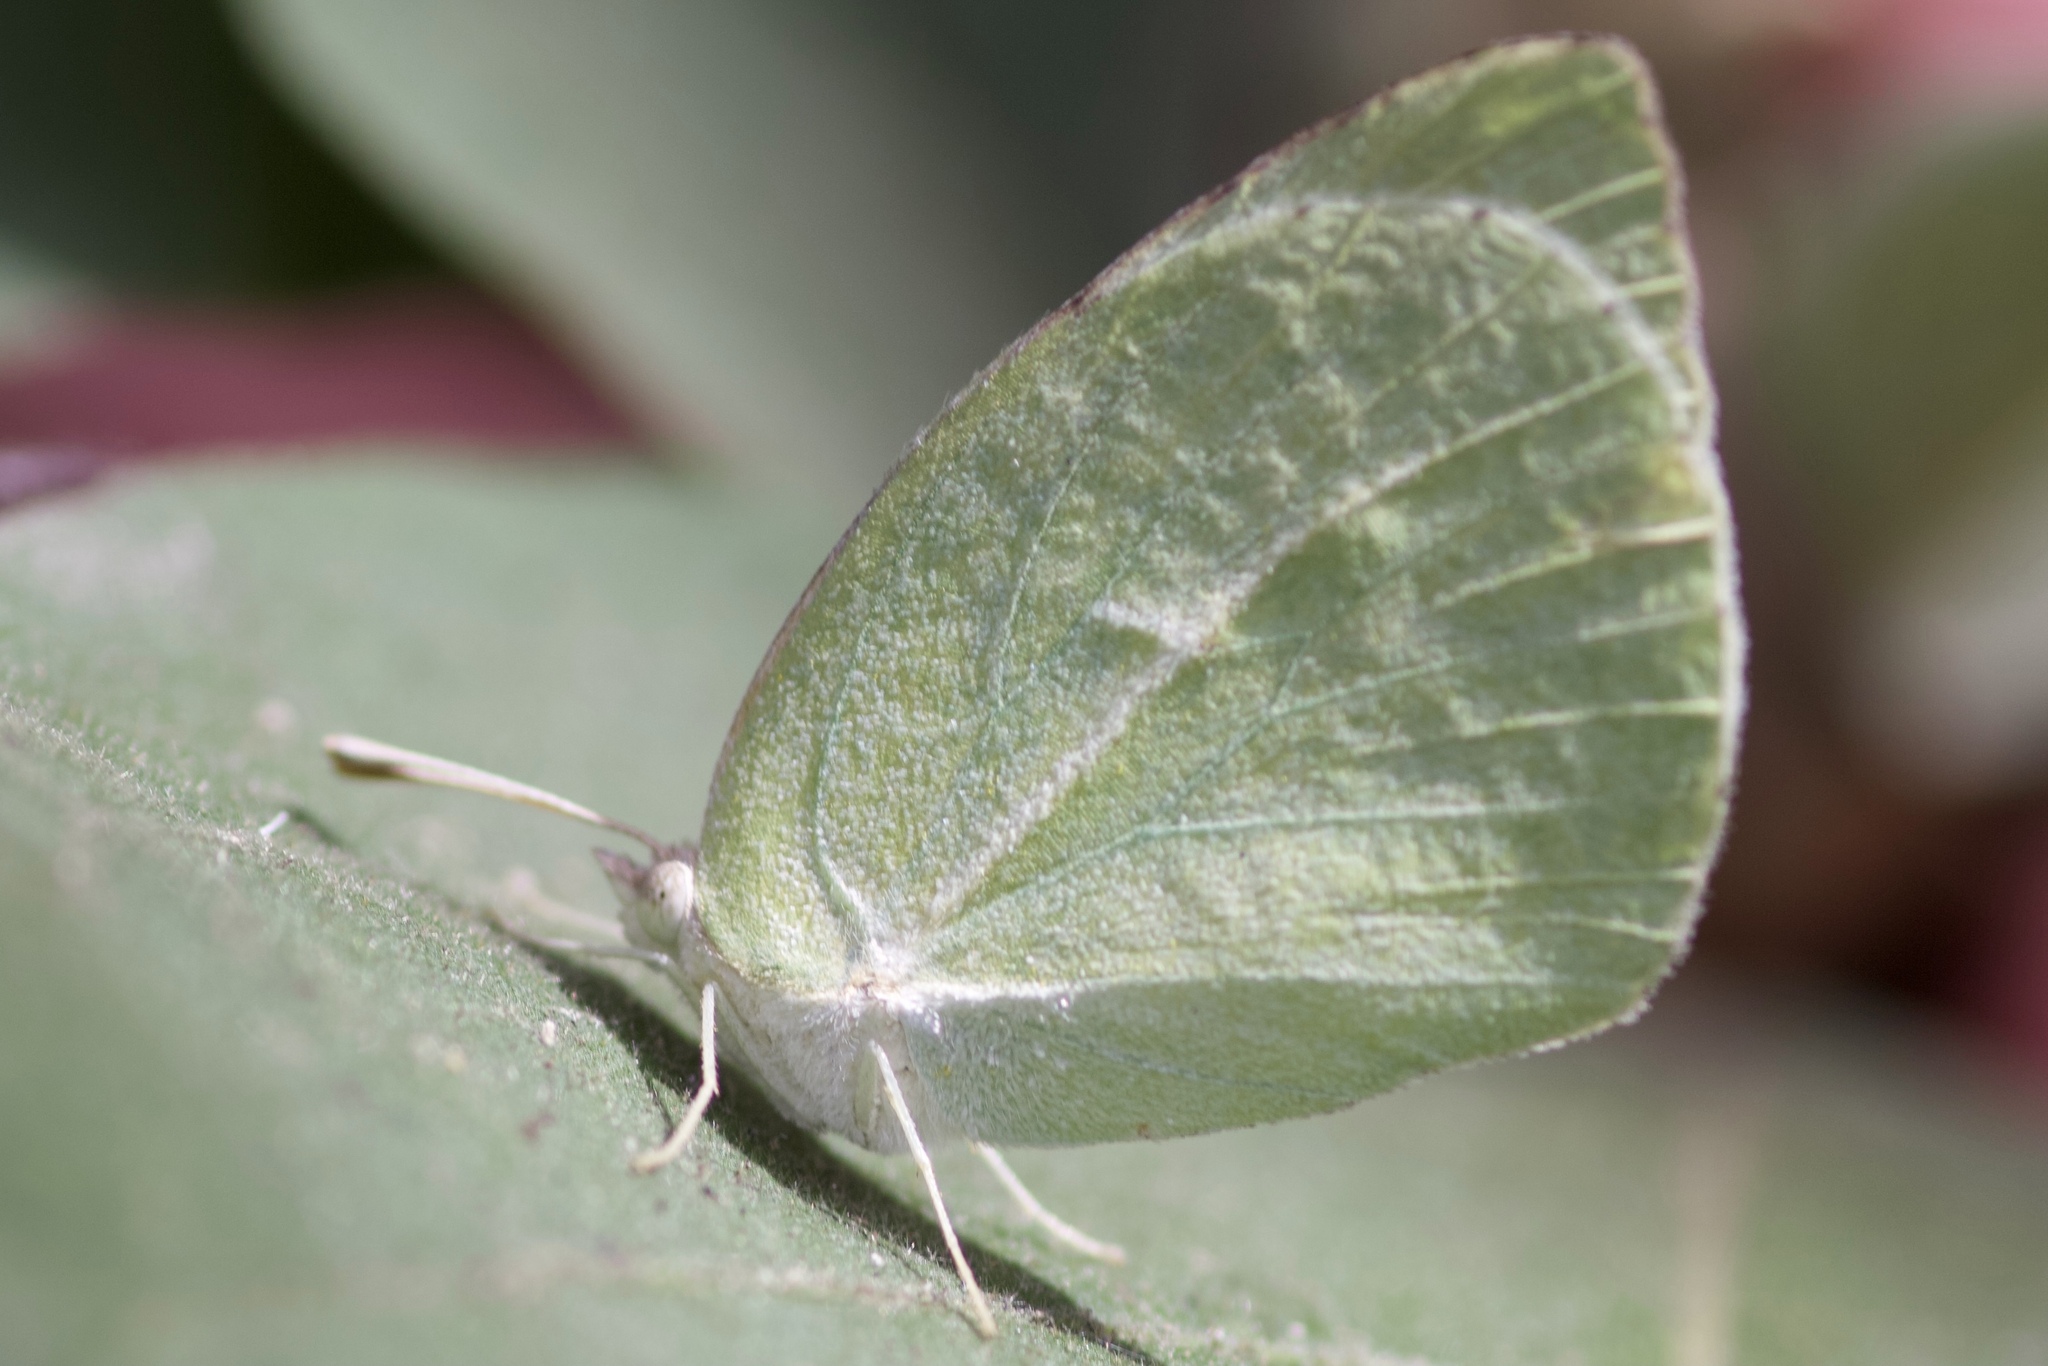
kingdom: Animalia
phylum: Arthropoda
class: Insecta
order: Lepidoptera
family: Pieridae
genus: Kricogonia
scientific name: Kricogonia lyside
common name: Guayacan sulphur,
